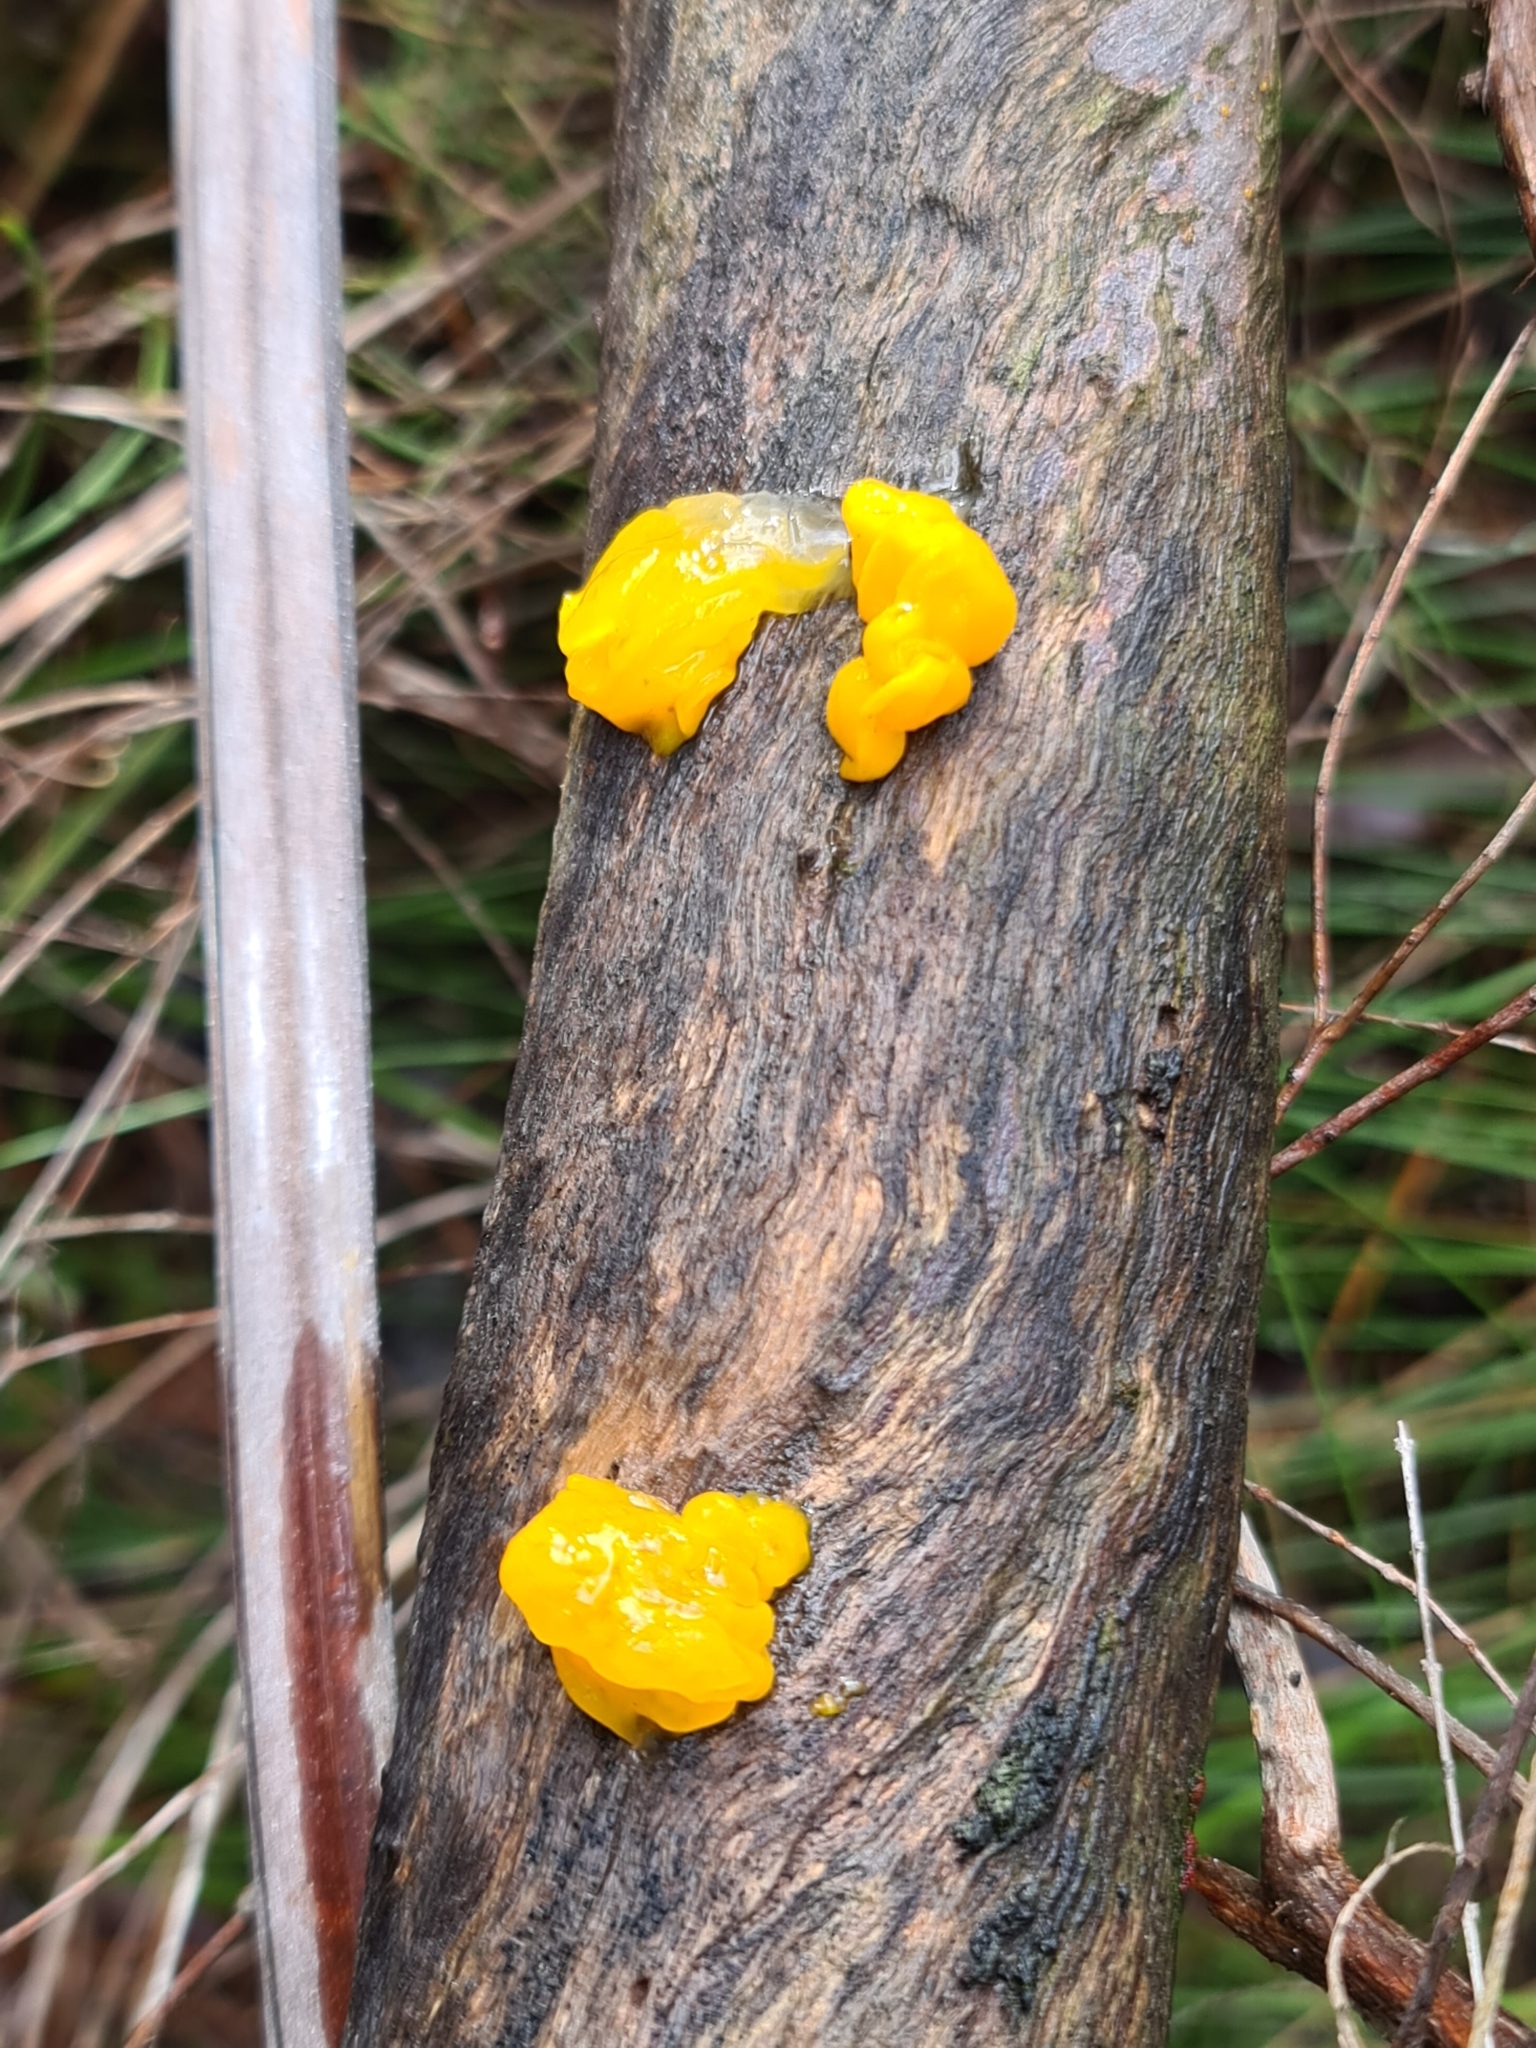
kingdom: Fungi
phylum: Basidiomycota
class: Tremellomycetes
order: Tremellales
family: Tremellaceae
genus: Tremella
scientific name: Tremella mesenterica
